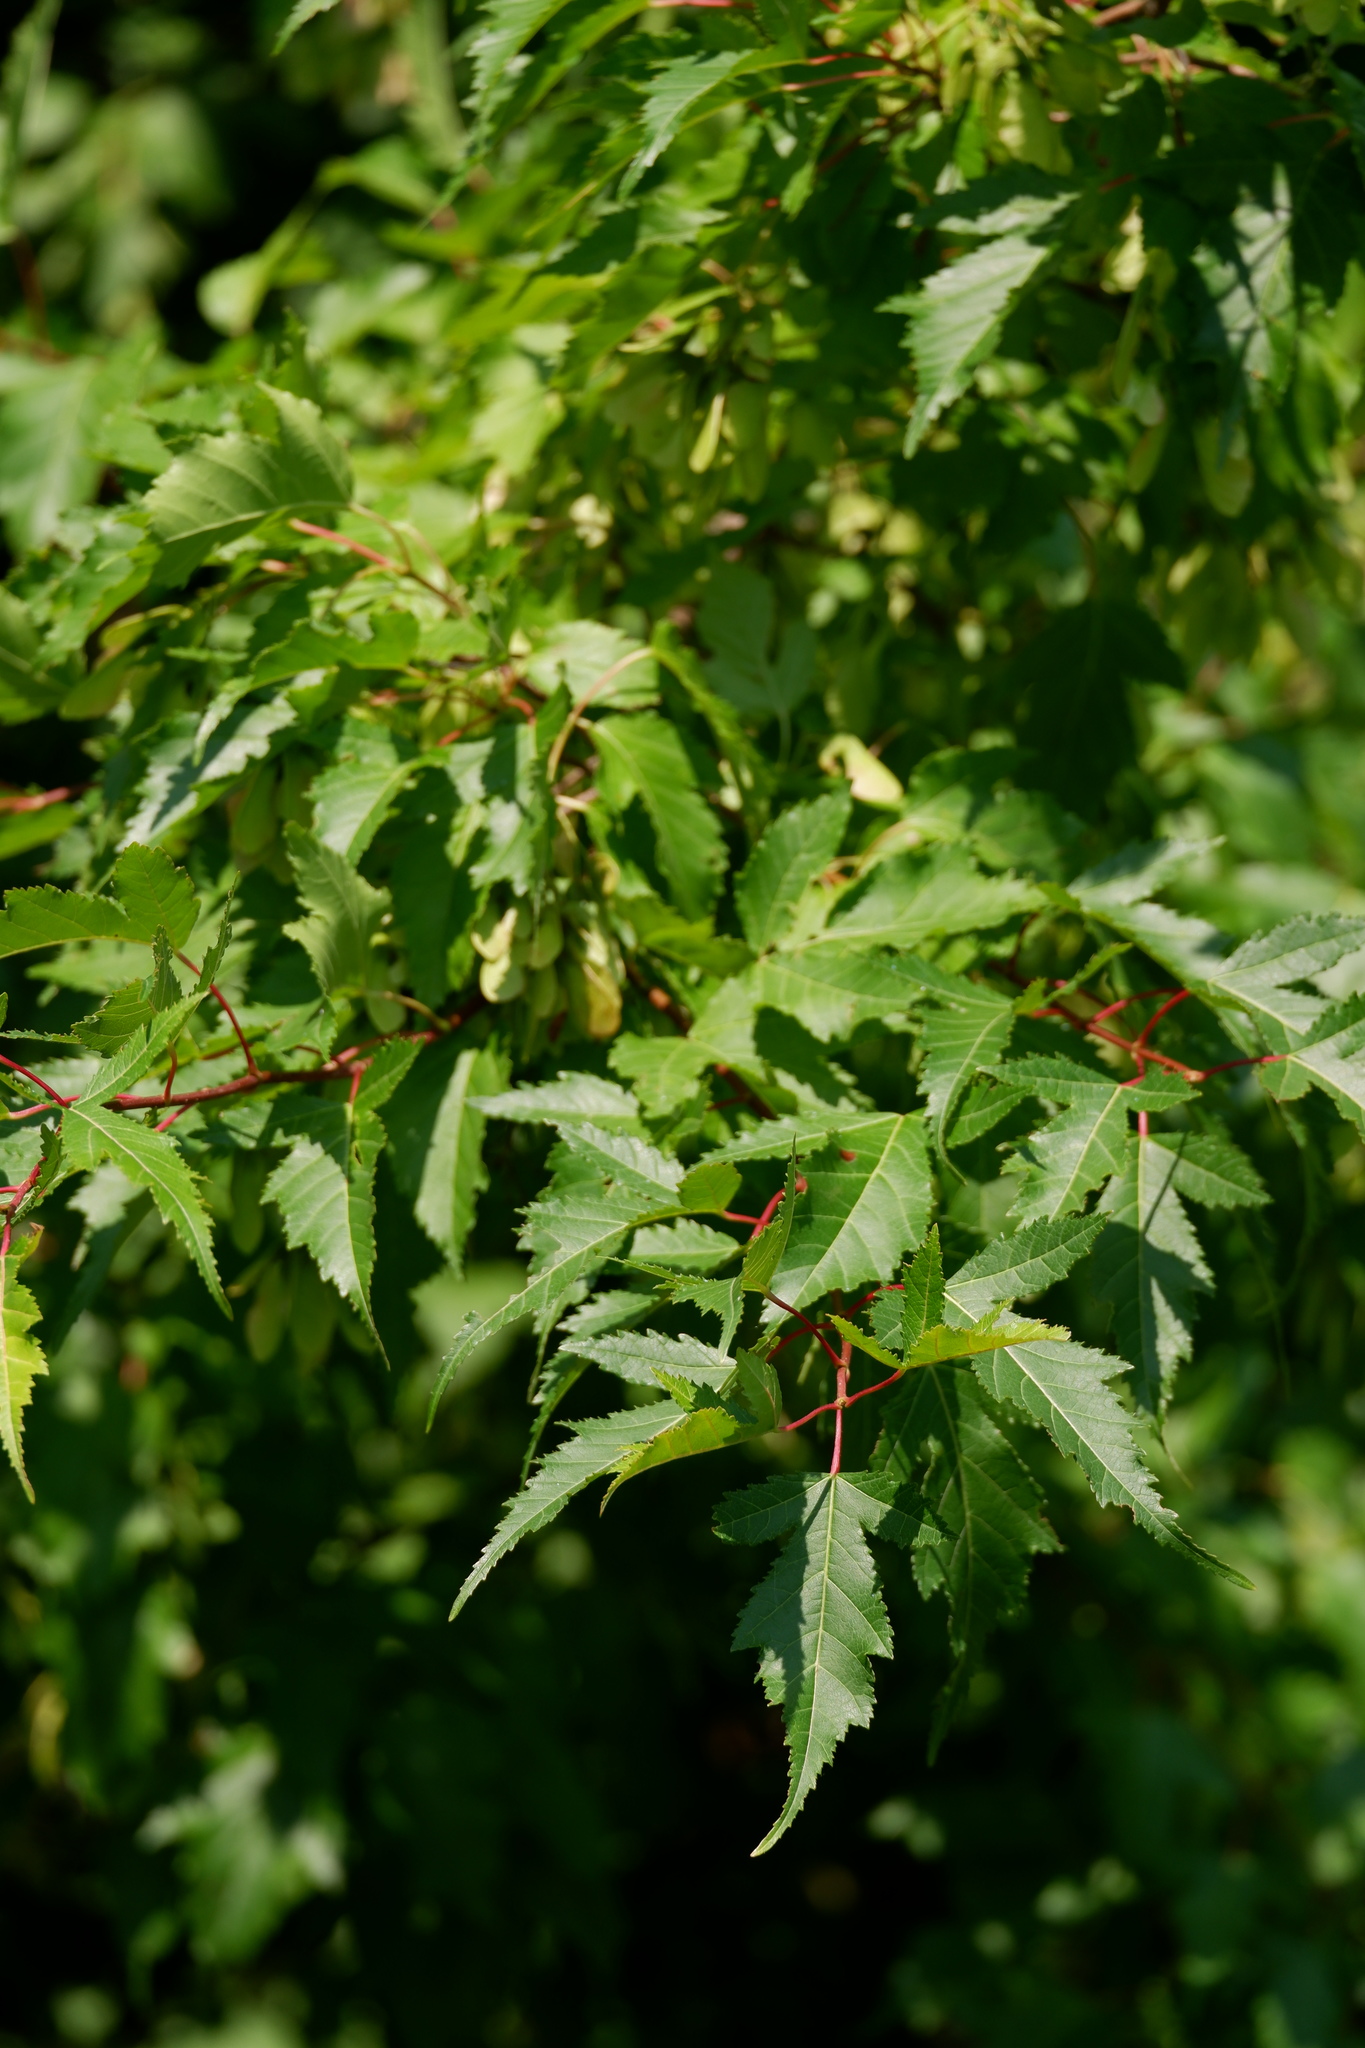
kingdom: Plantae
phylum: Tracheophyta
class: Magnoliopsida
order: Sapindales
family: Sapindaceae
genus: Acer
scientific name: Acer tataricum
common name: Tartar maple
